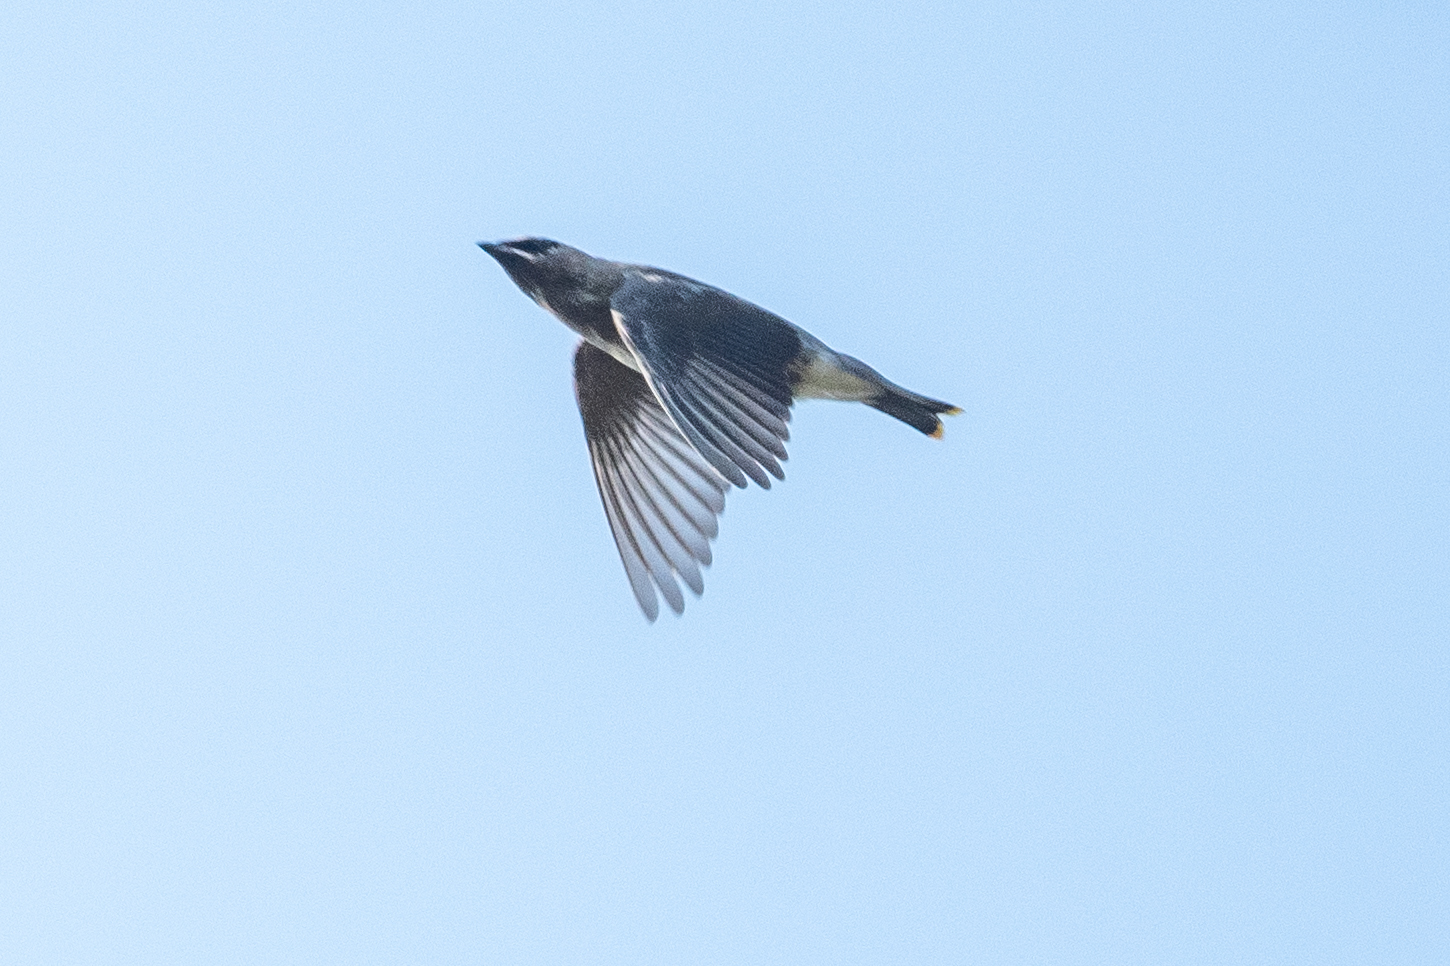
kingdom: Animalia
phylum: Chordata
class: Aves
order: Passeriformes
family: Bombycillidae
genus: Bombycilla
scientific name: Bombycilla cedrorum
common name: Cedar waxwing
